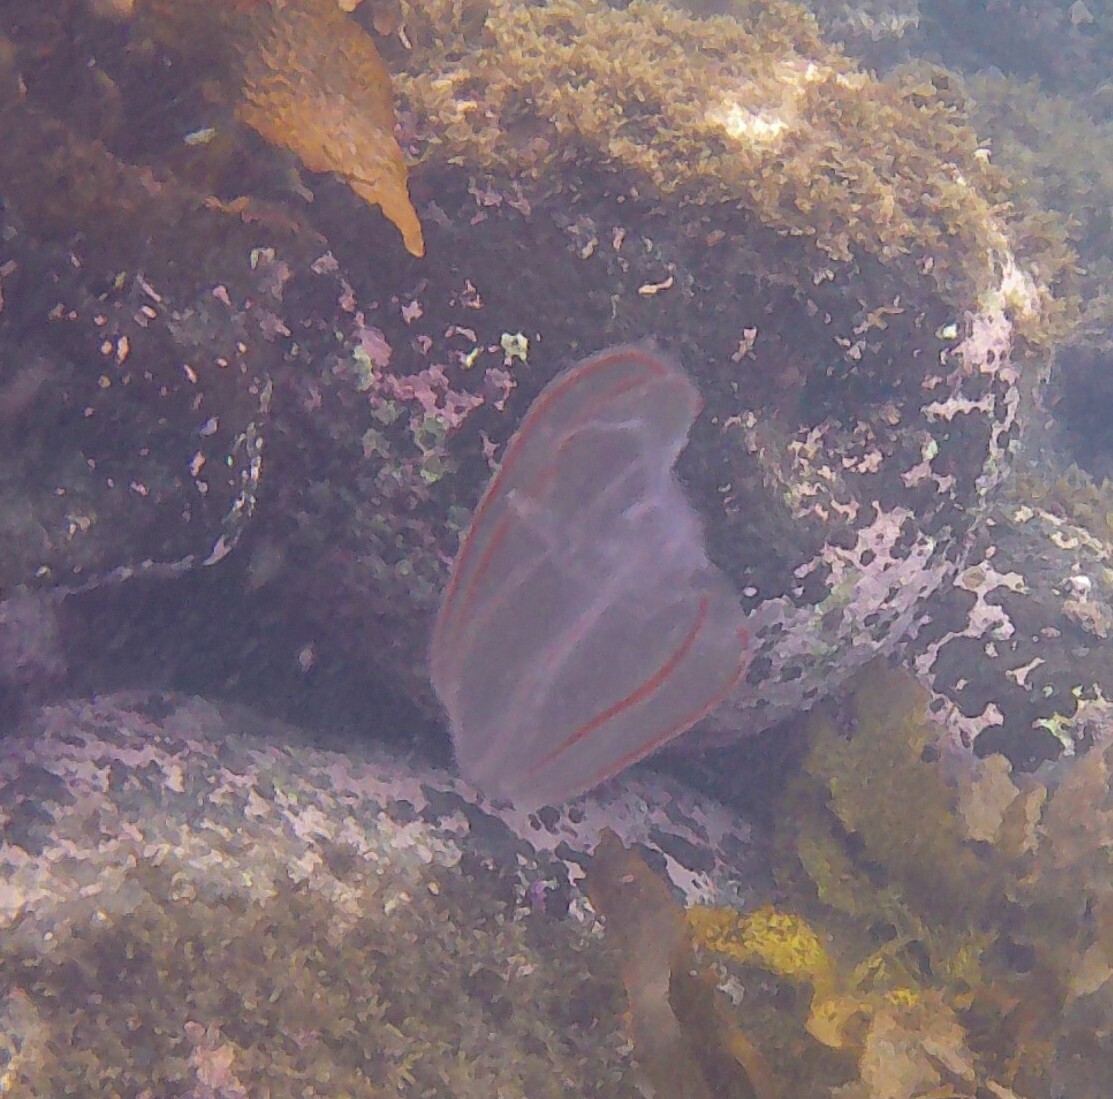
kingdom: Animalia
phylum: Ctenophora
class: Tentaculata
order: Lobata
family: Bolinopsidae
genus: Bolinopsis
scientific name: Bolinopsis ashleyi
